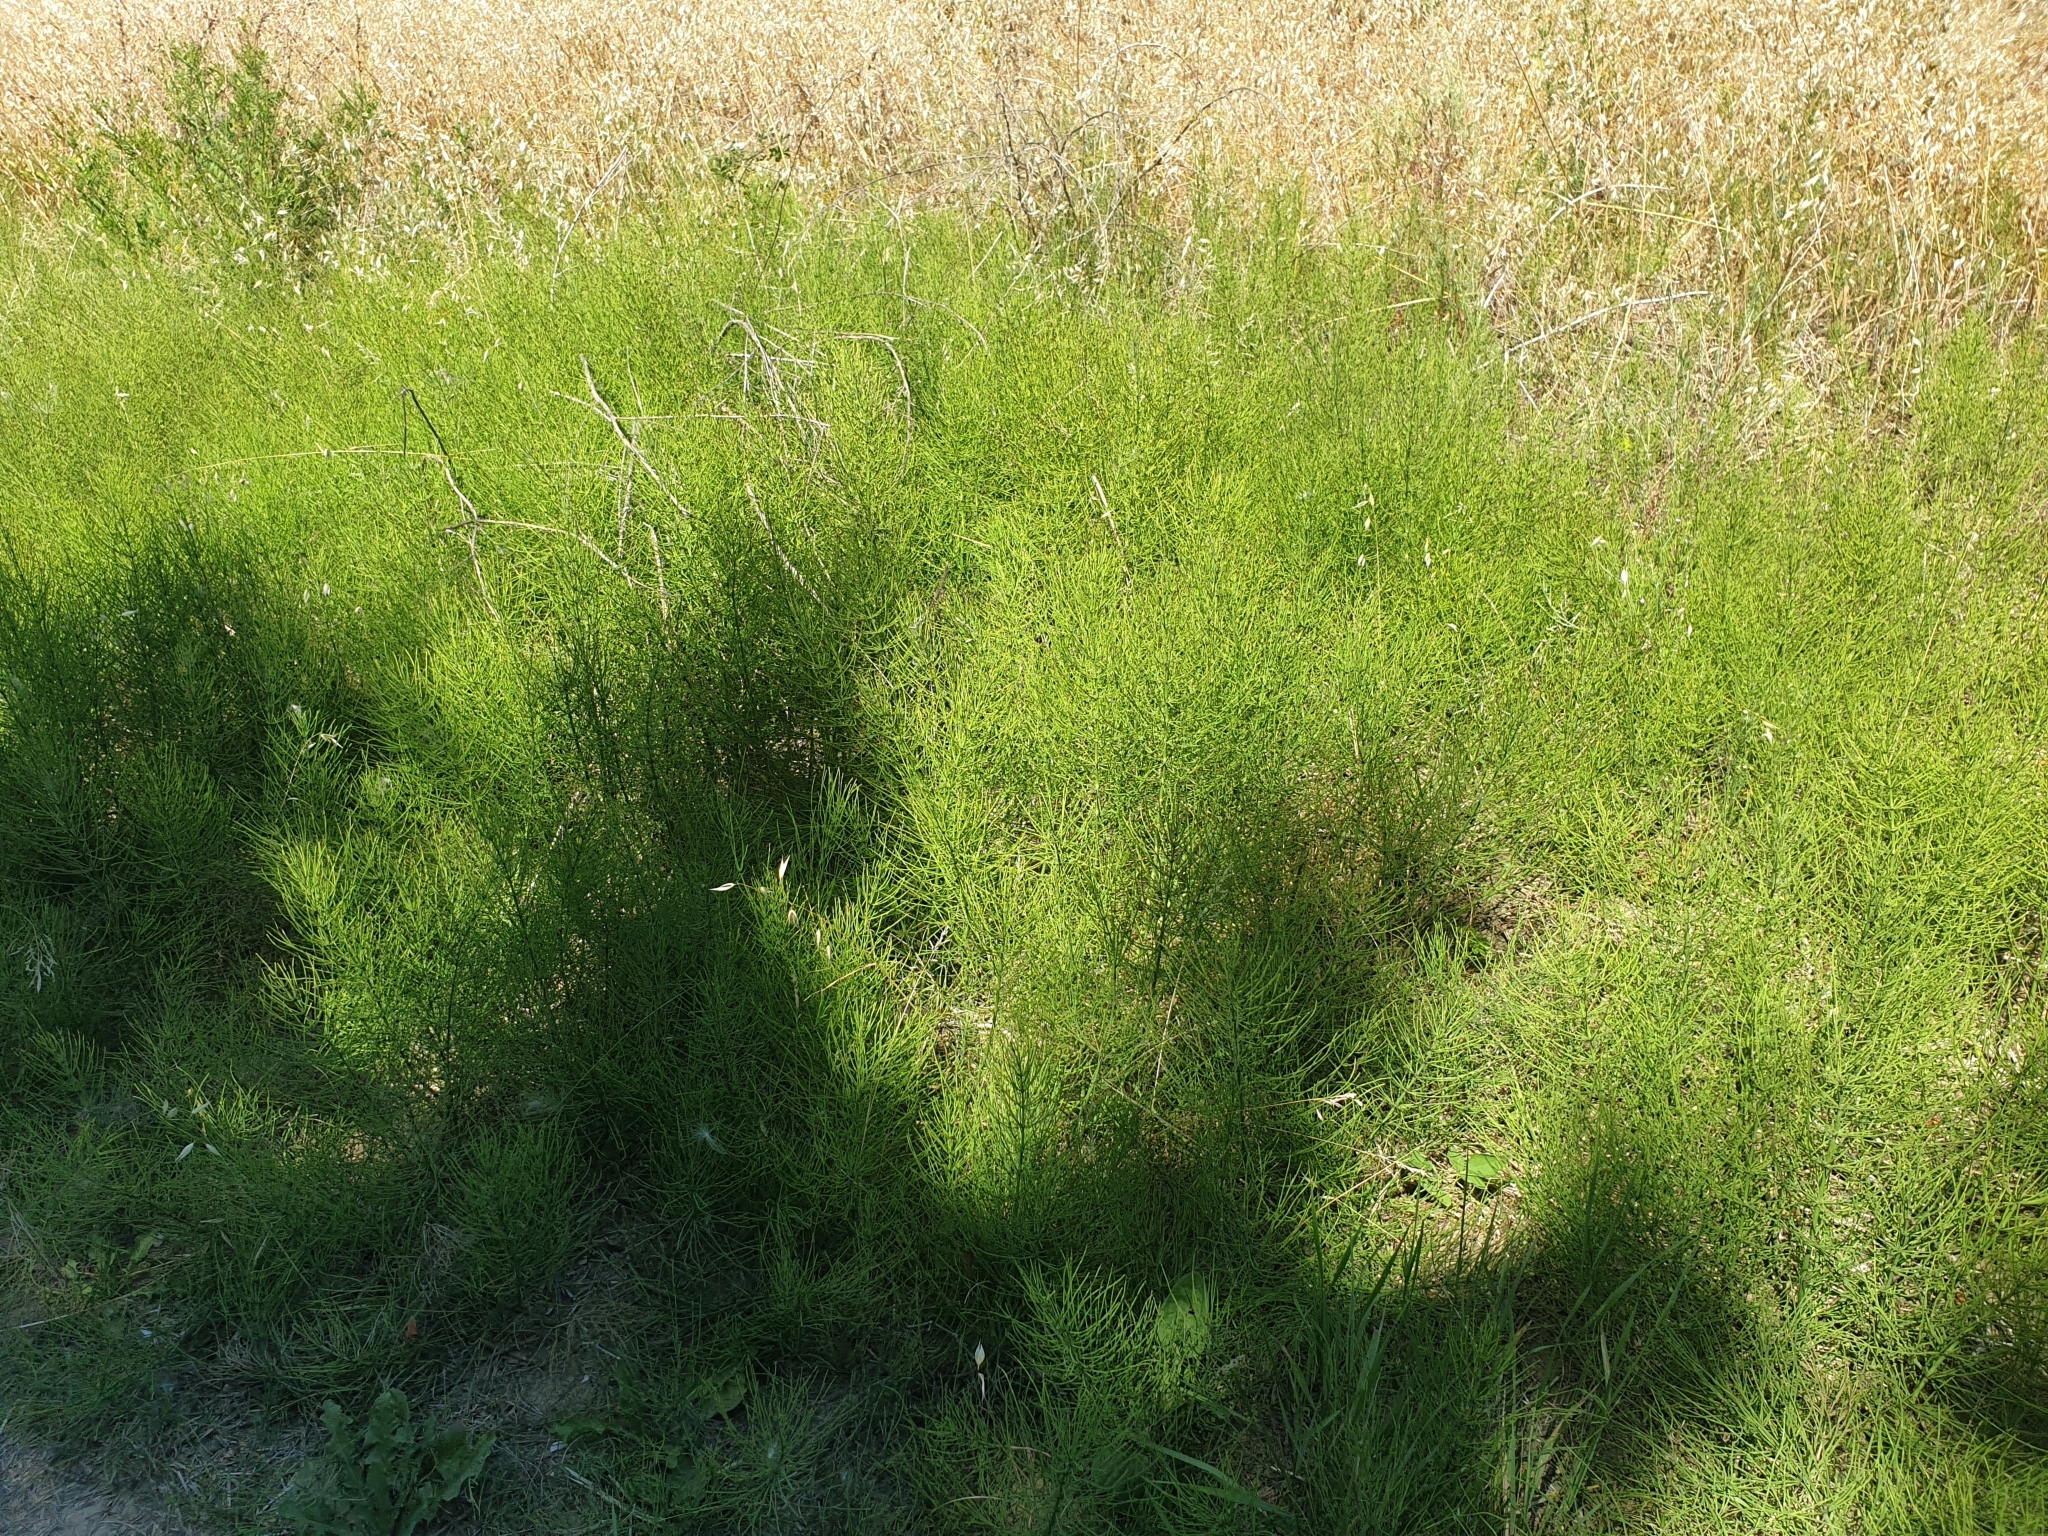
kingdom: Plantae
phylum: Tracheophyta
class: Polypodiopsida
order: Equisetales
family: Equisetaceae
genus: Equisetum
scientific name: Equisetum arvense
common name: Field horsetail
